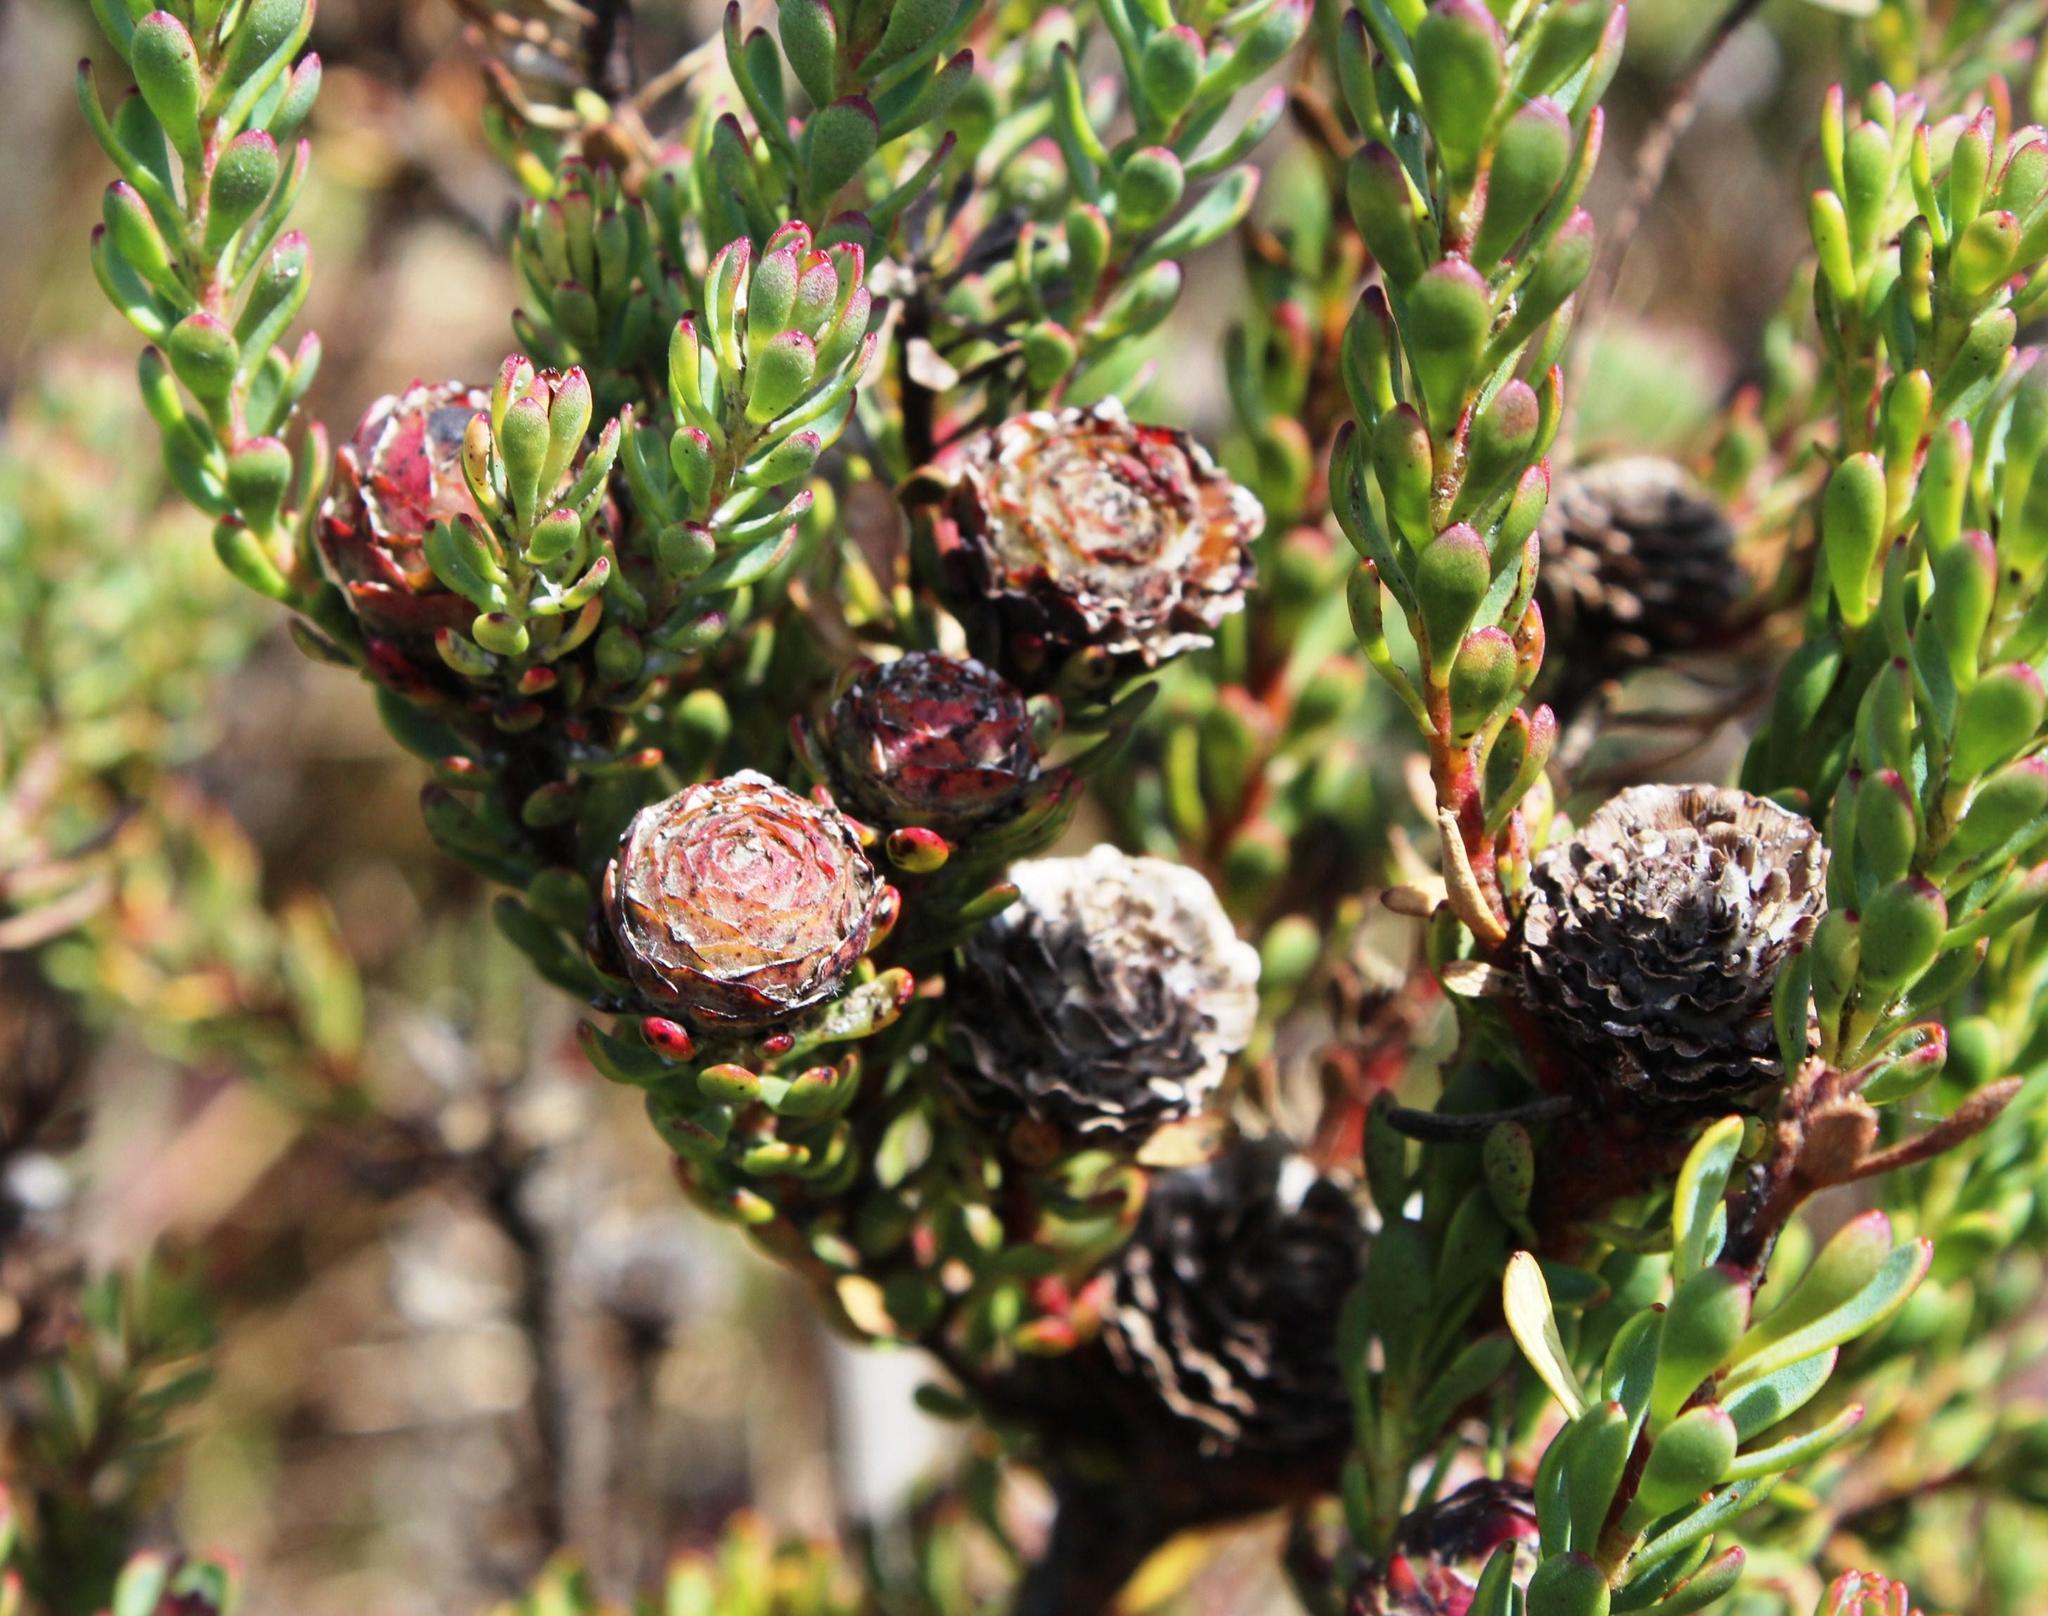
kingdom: Plantae
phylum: Tracheophyta
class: Magnoliopsida
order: Proteales
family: Proteaceae
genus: Leucadendron
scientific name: Leucadendron levisanus
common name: Cape flats conebush
